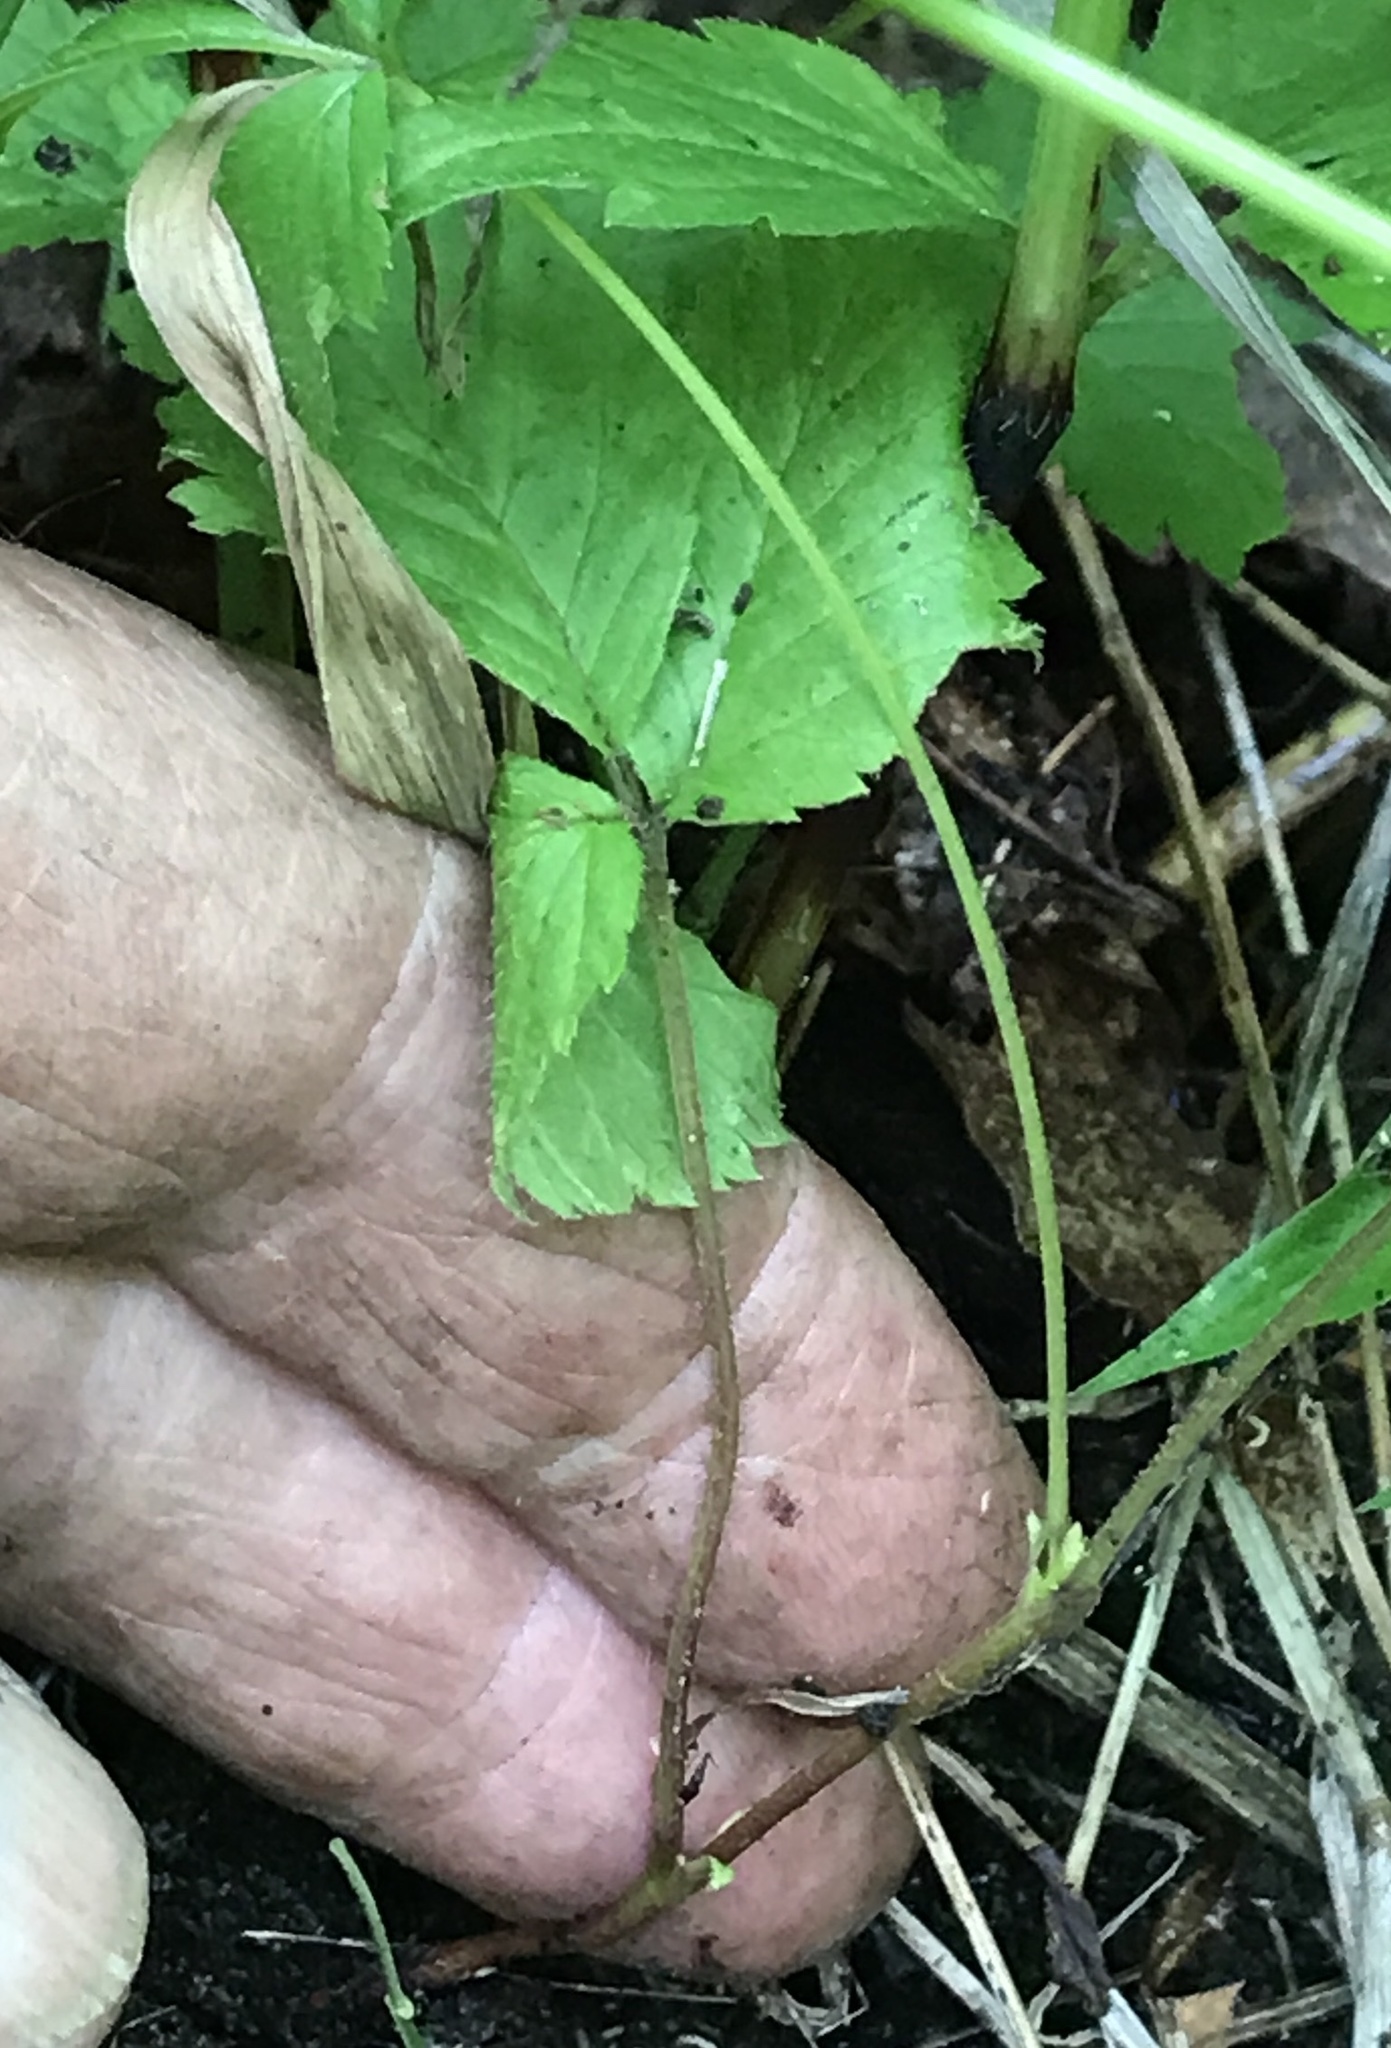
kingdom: Plantae
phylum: Tracheophyta
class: Magnoliopsida
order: Rosales
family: Rosaceae
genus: Rubus
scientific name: Rubus pubescens
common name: Dwarf raspberry
